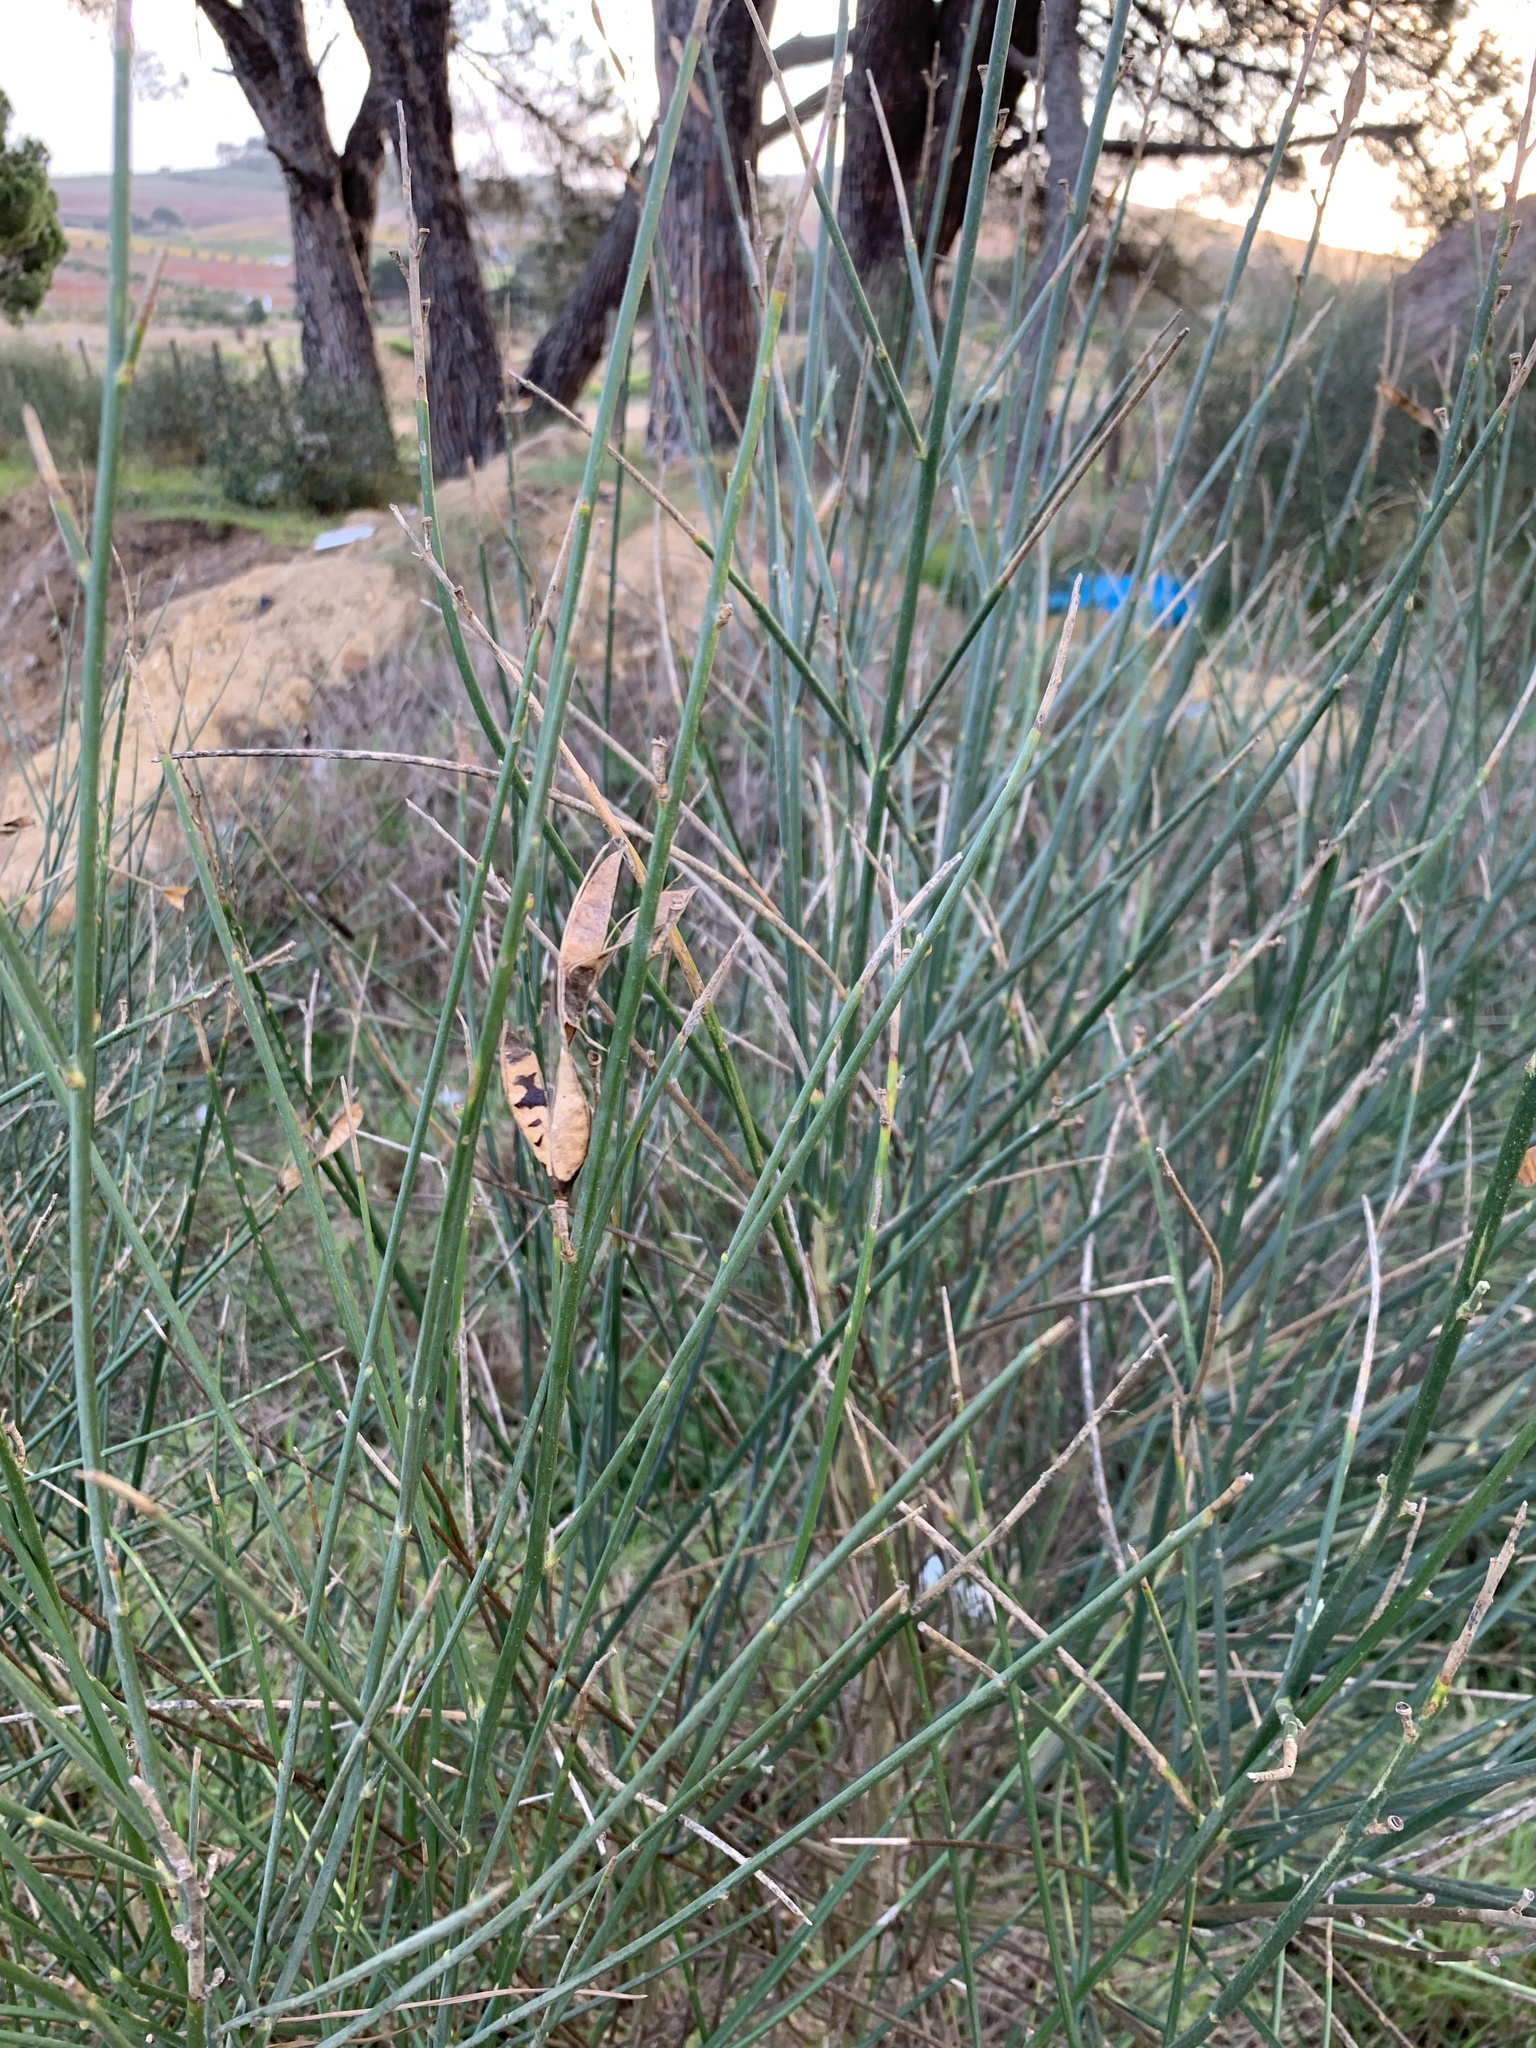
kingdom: Plantae
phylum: Tracheophyta
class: Magnoliopsida
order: Fabales
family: Fabaceae
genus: Spartium
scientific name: Spartium junceum
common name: Spanish broom
